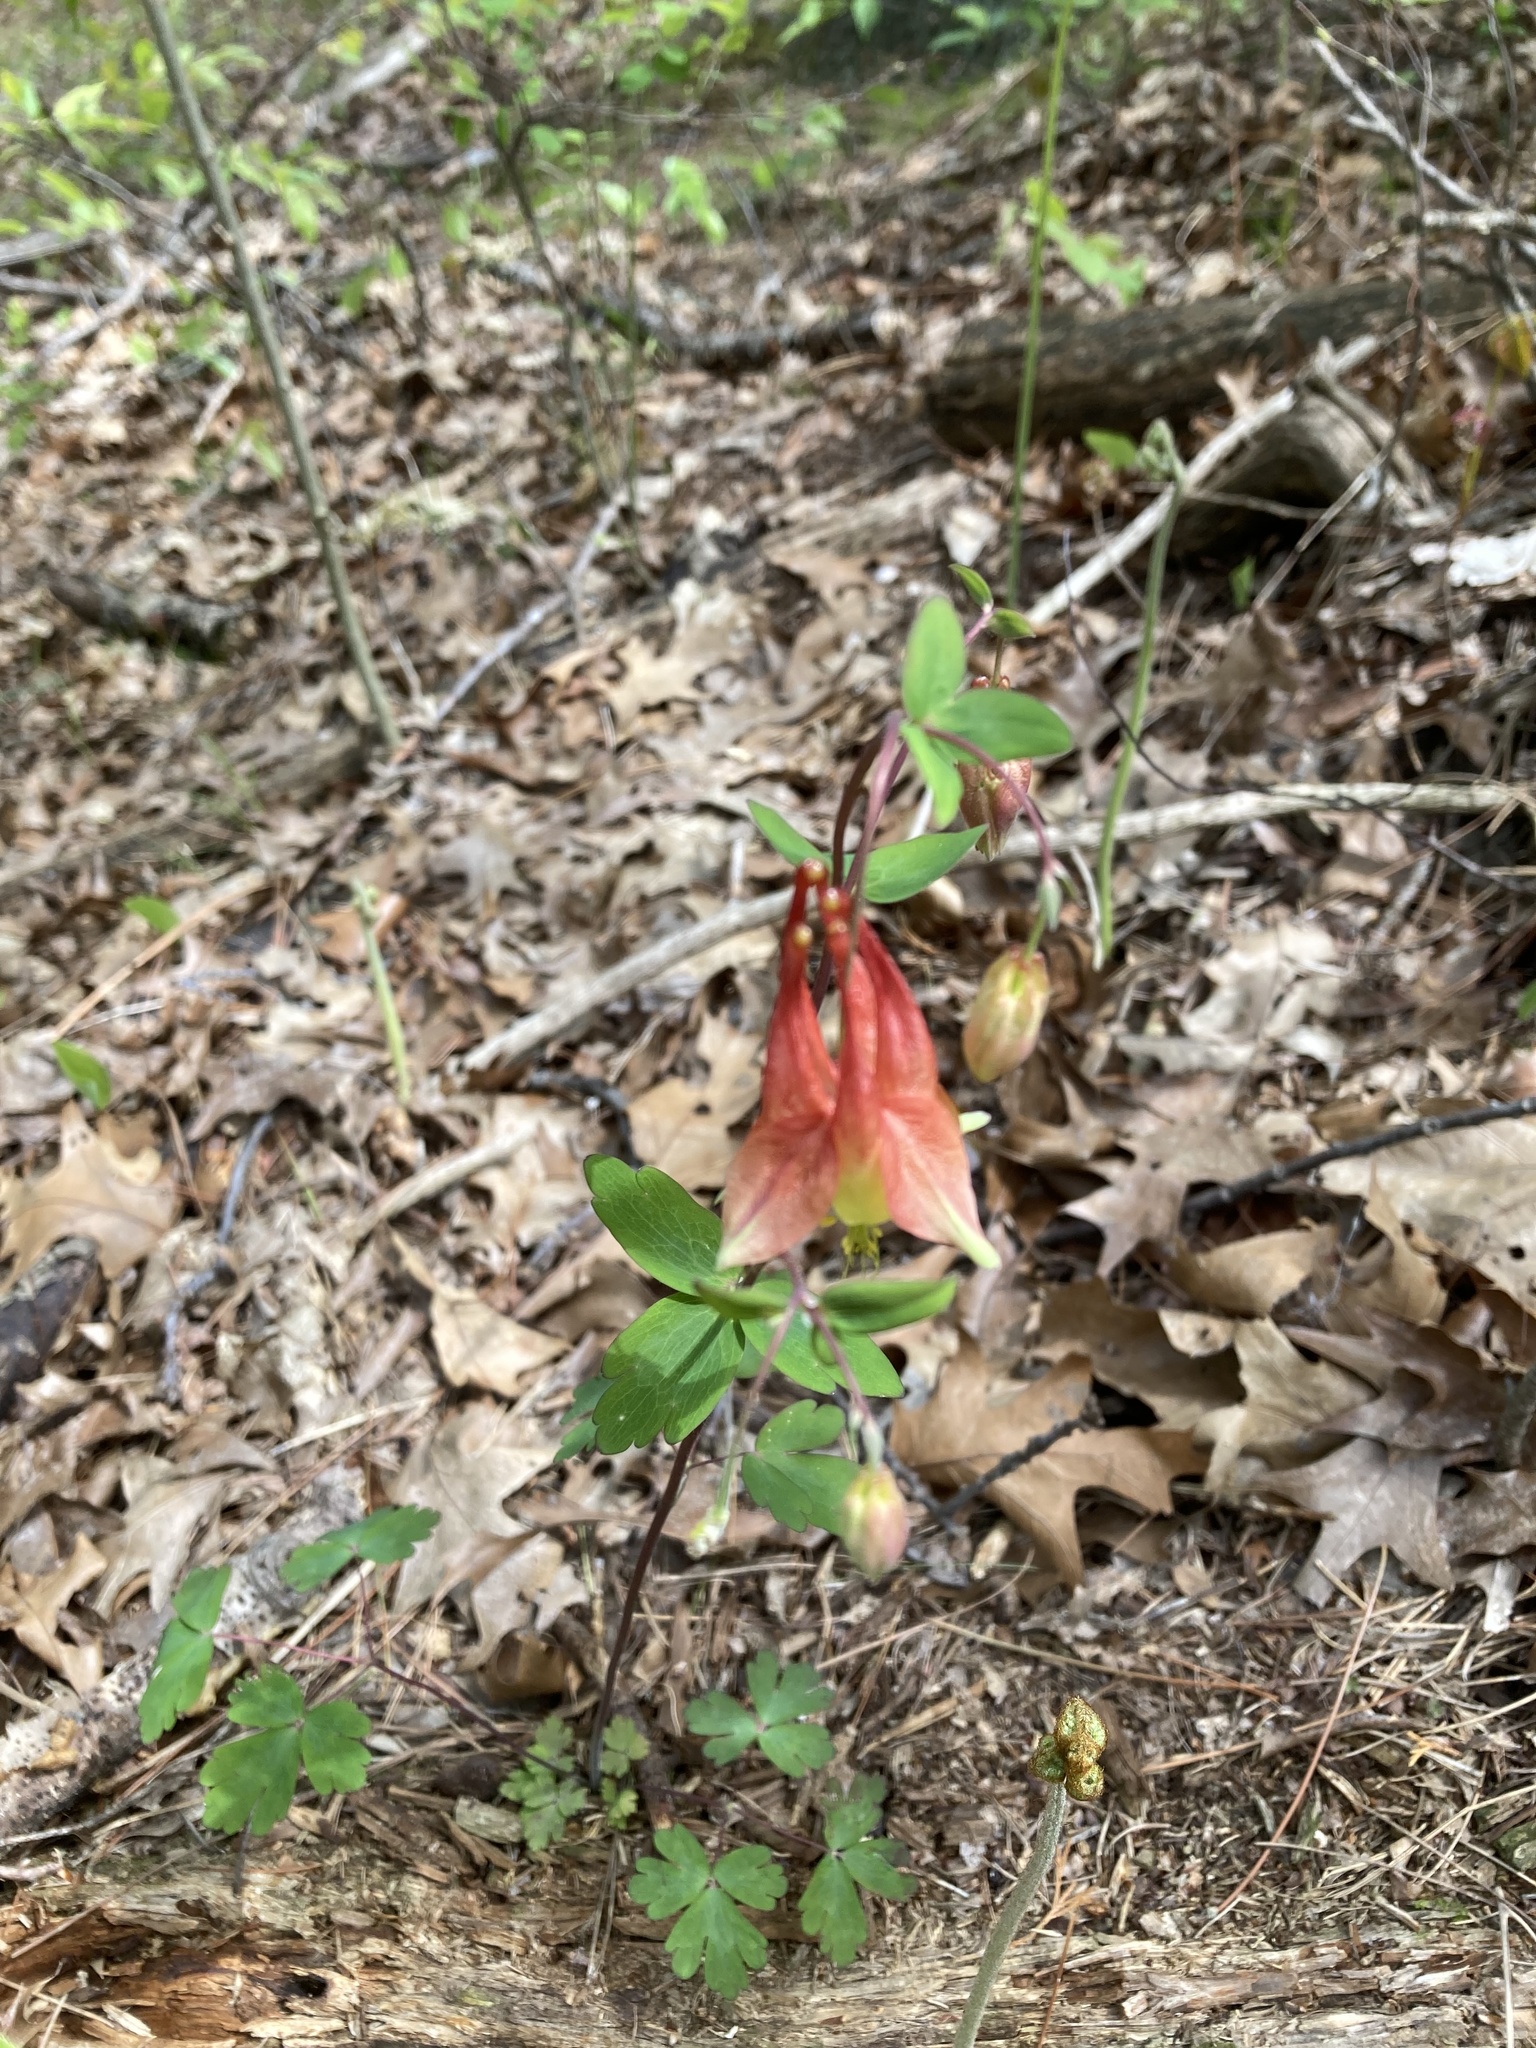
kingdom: Plantae
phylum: Tracheophyta
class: Magnoliopsida
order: Ranunculales
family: Ranunculaceae
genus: Aquilegia
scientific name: Aquilegia canadensis
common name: American columbine
